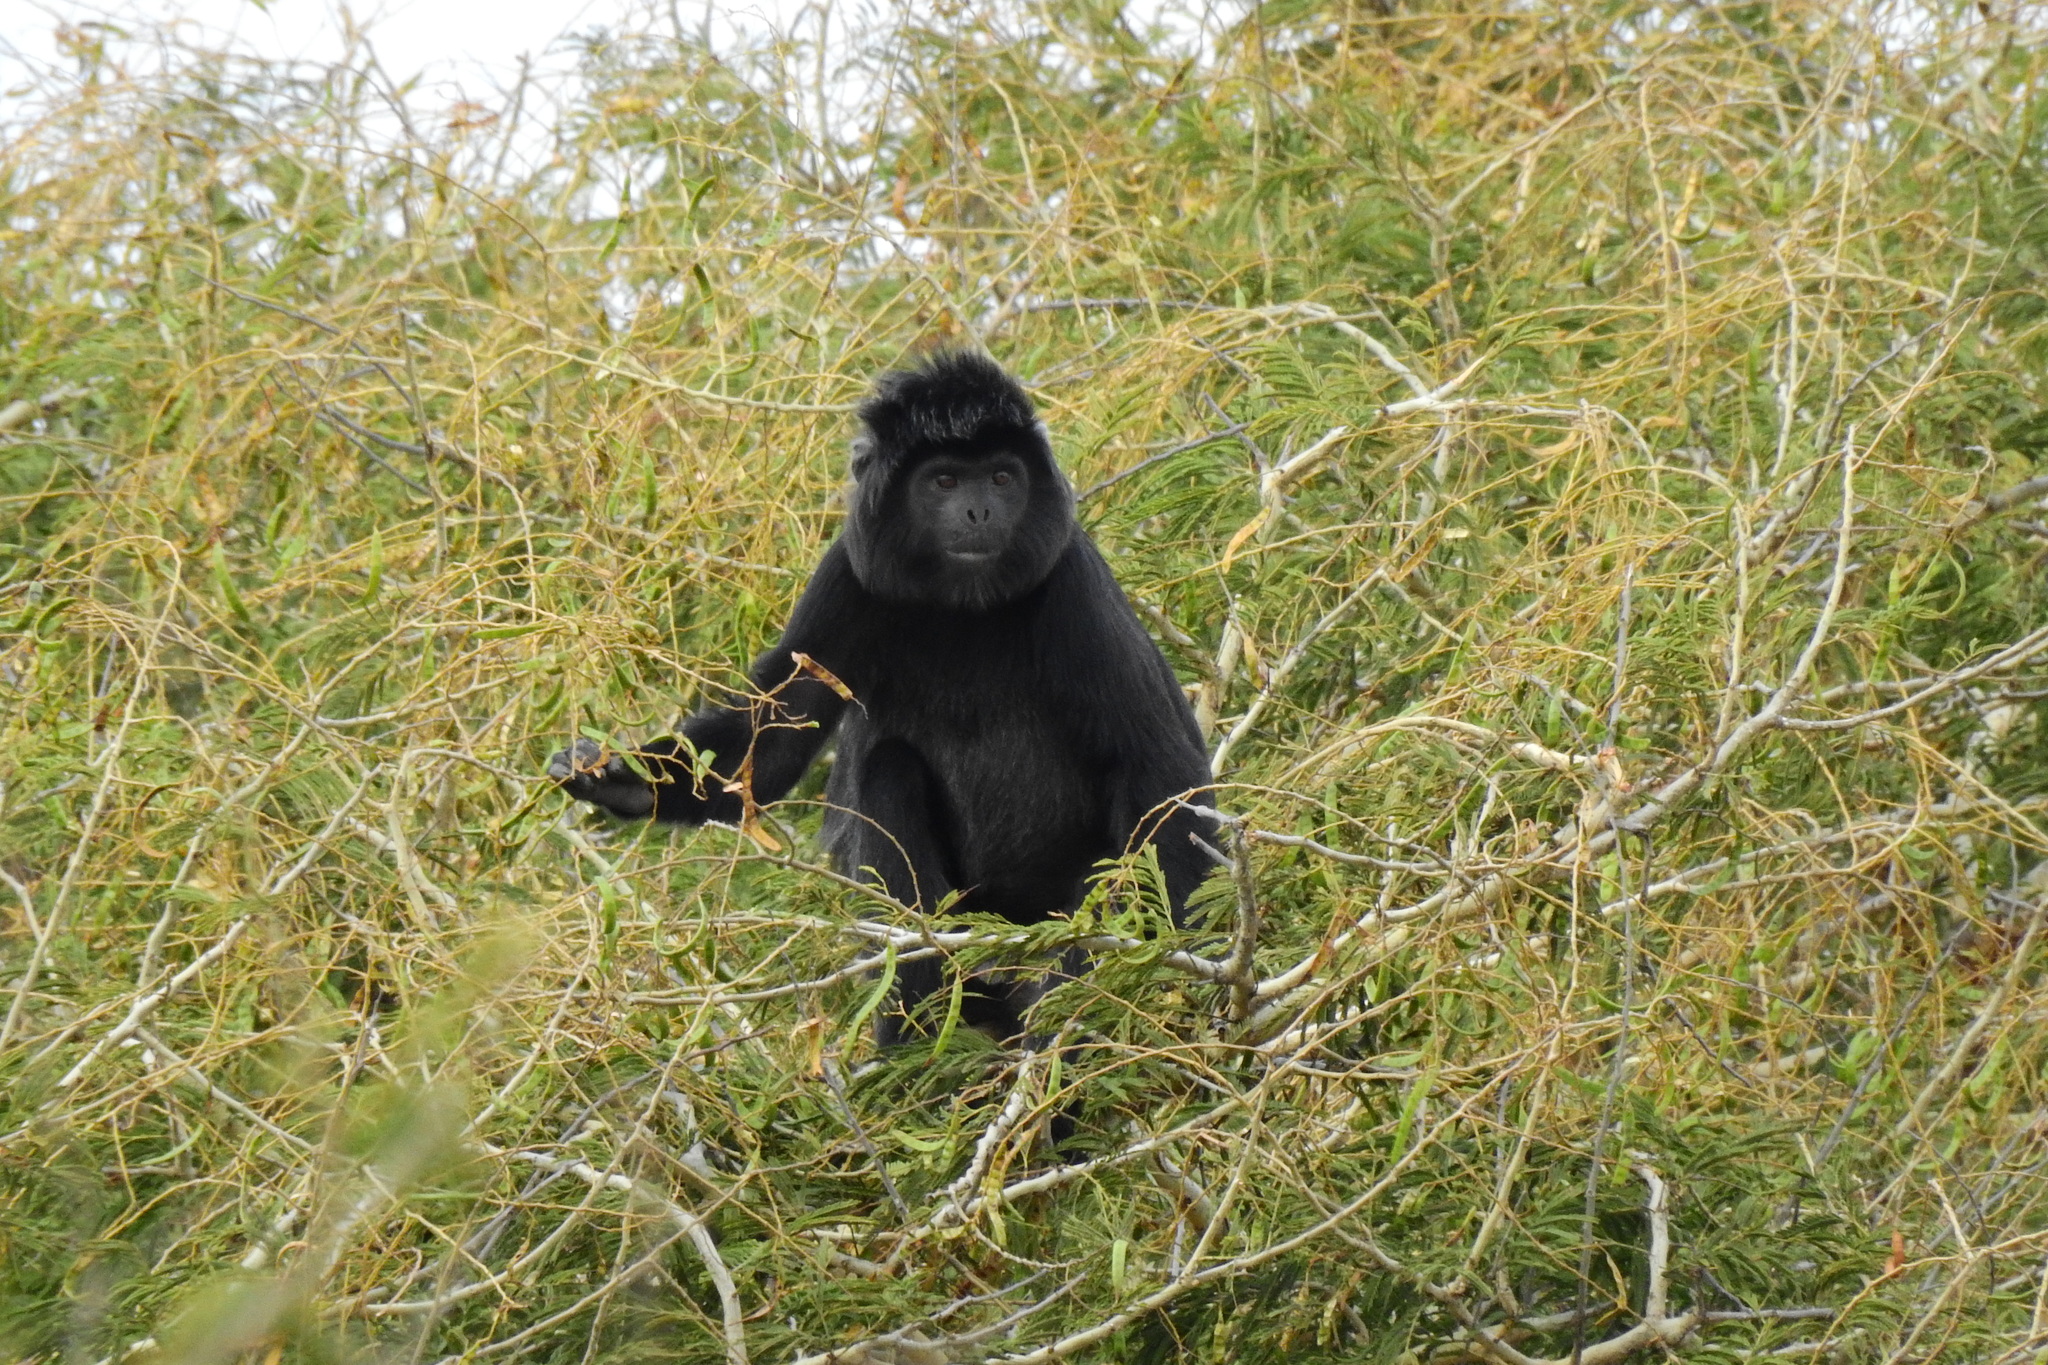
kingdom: Animalia
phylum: Chordata
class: Mammalia
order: Primates
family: Cercopithecidae
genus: Trachypithecus
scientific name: Trachypithecus auratus
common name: Javan lutung
